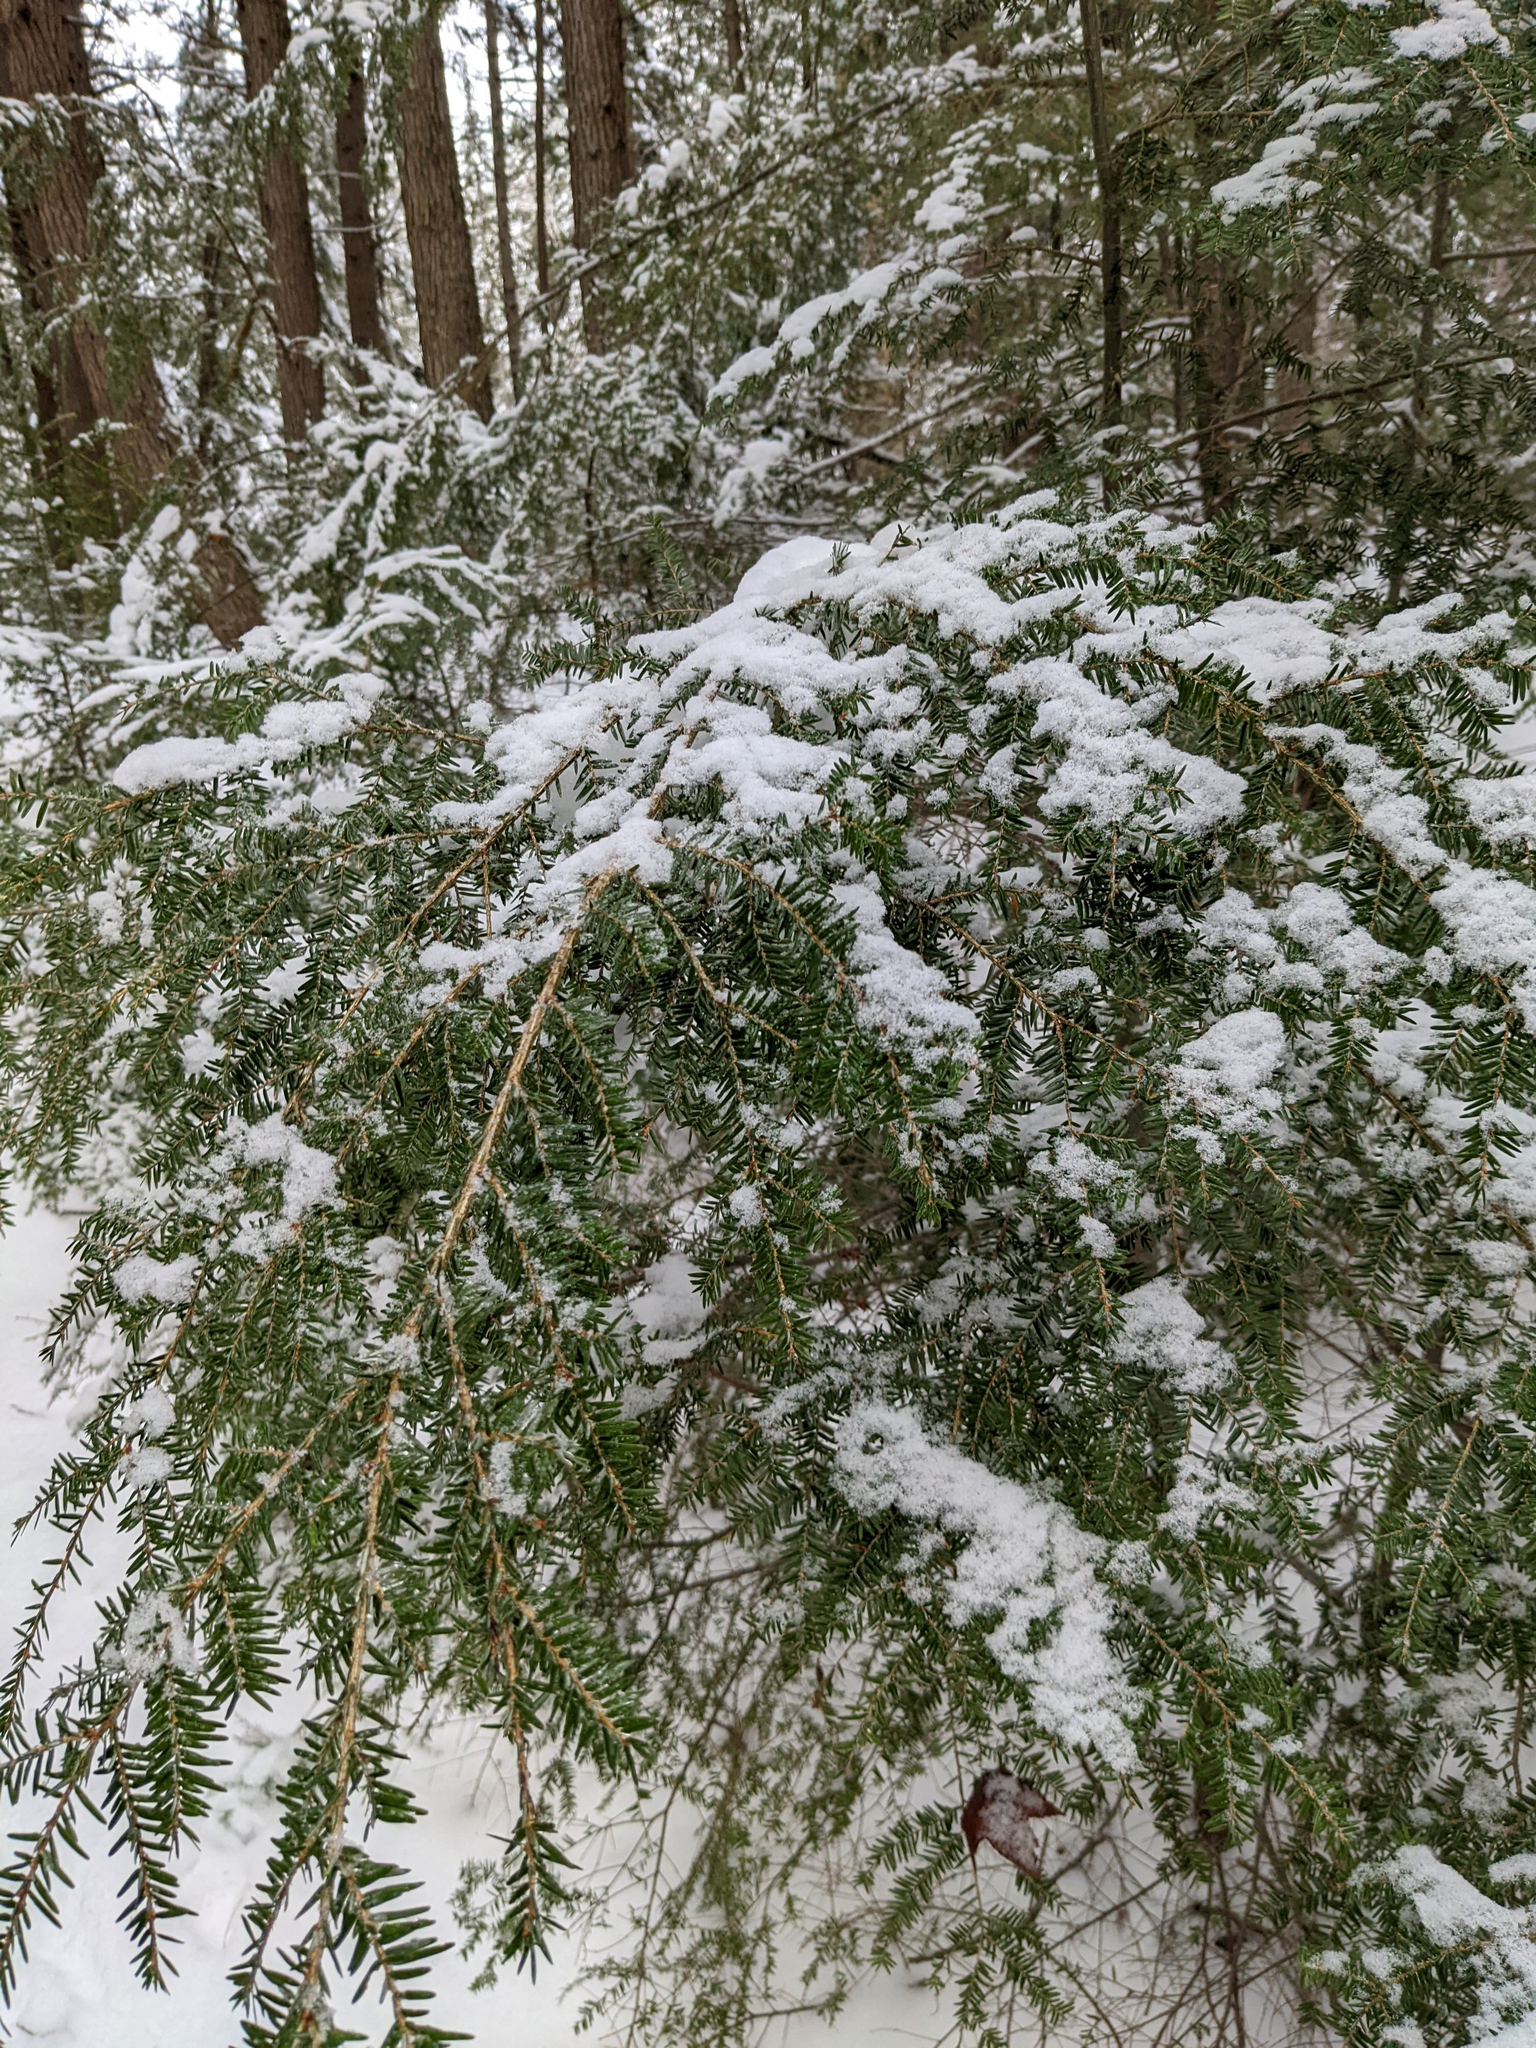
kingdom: Plantae
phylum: Tracheophyta
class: Pinopsida
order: Pinales
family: Pinaceae
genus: Tsuga
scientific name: Tsuga canadensis
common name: Eastern hemlock
